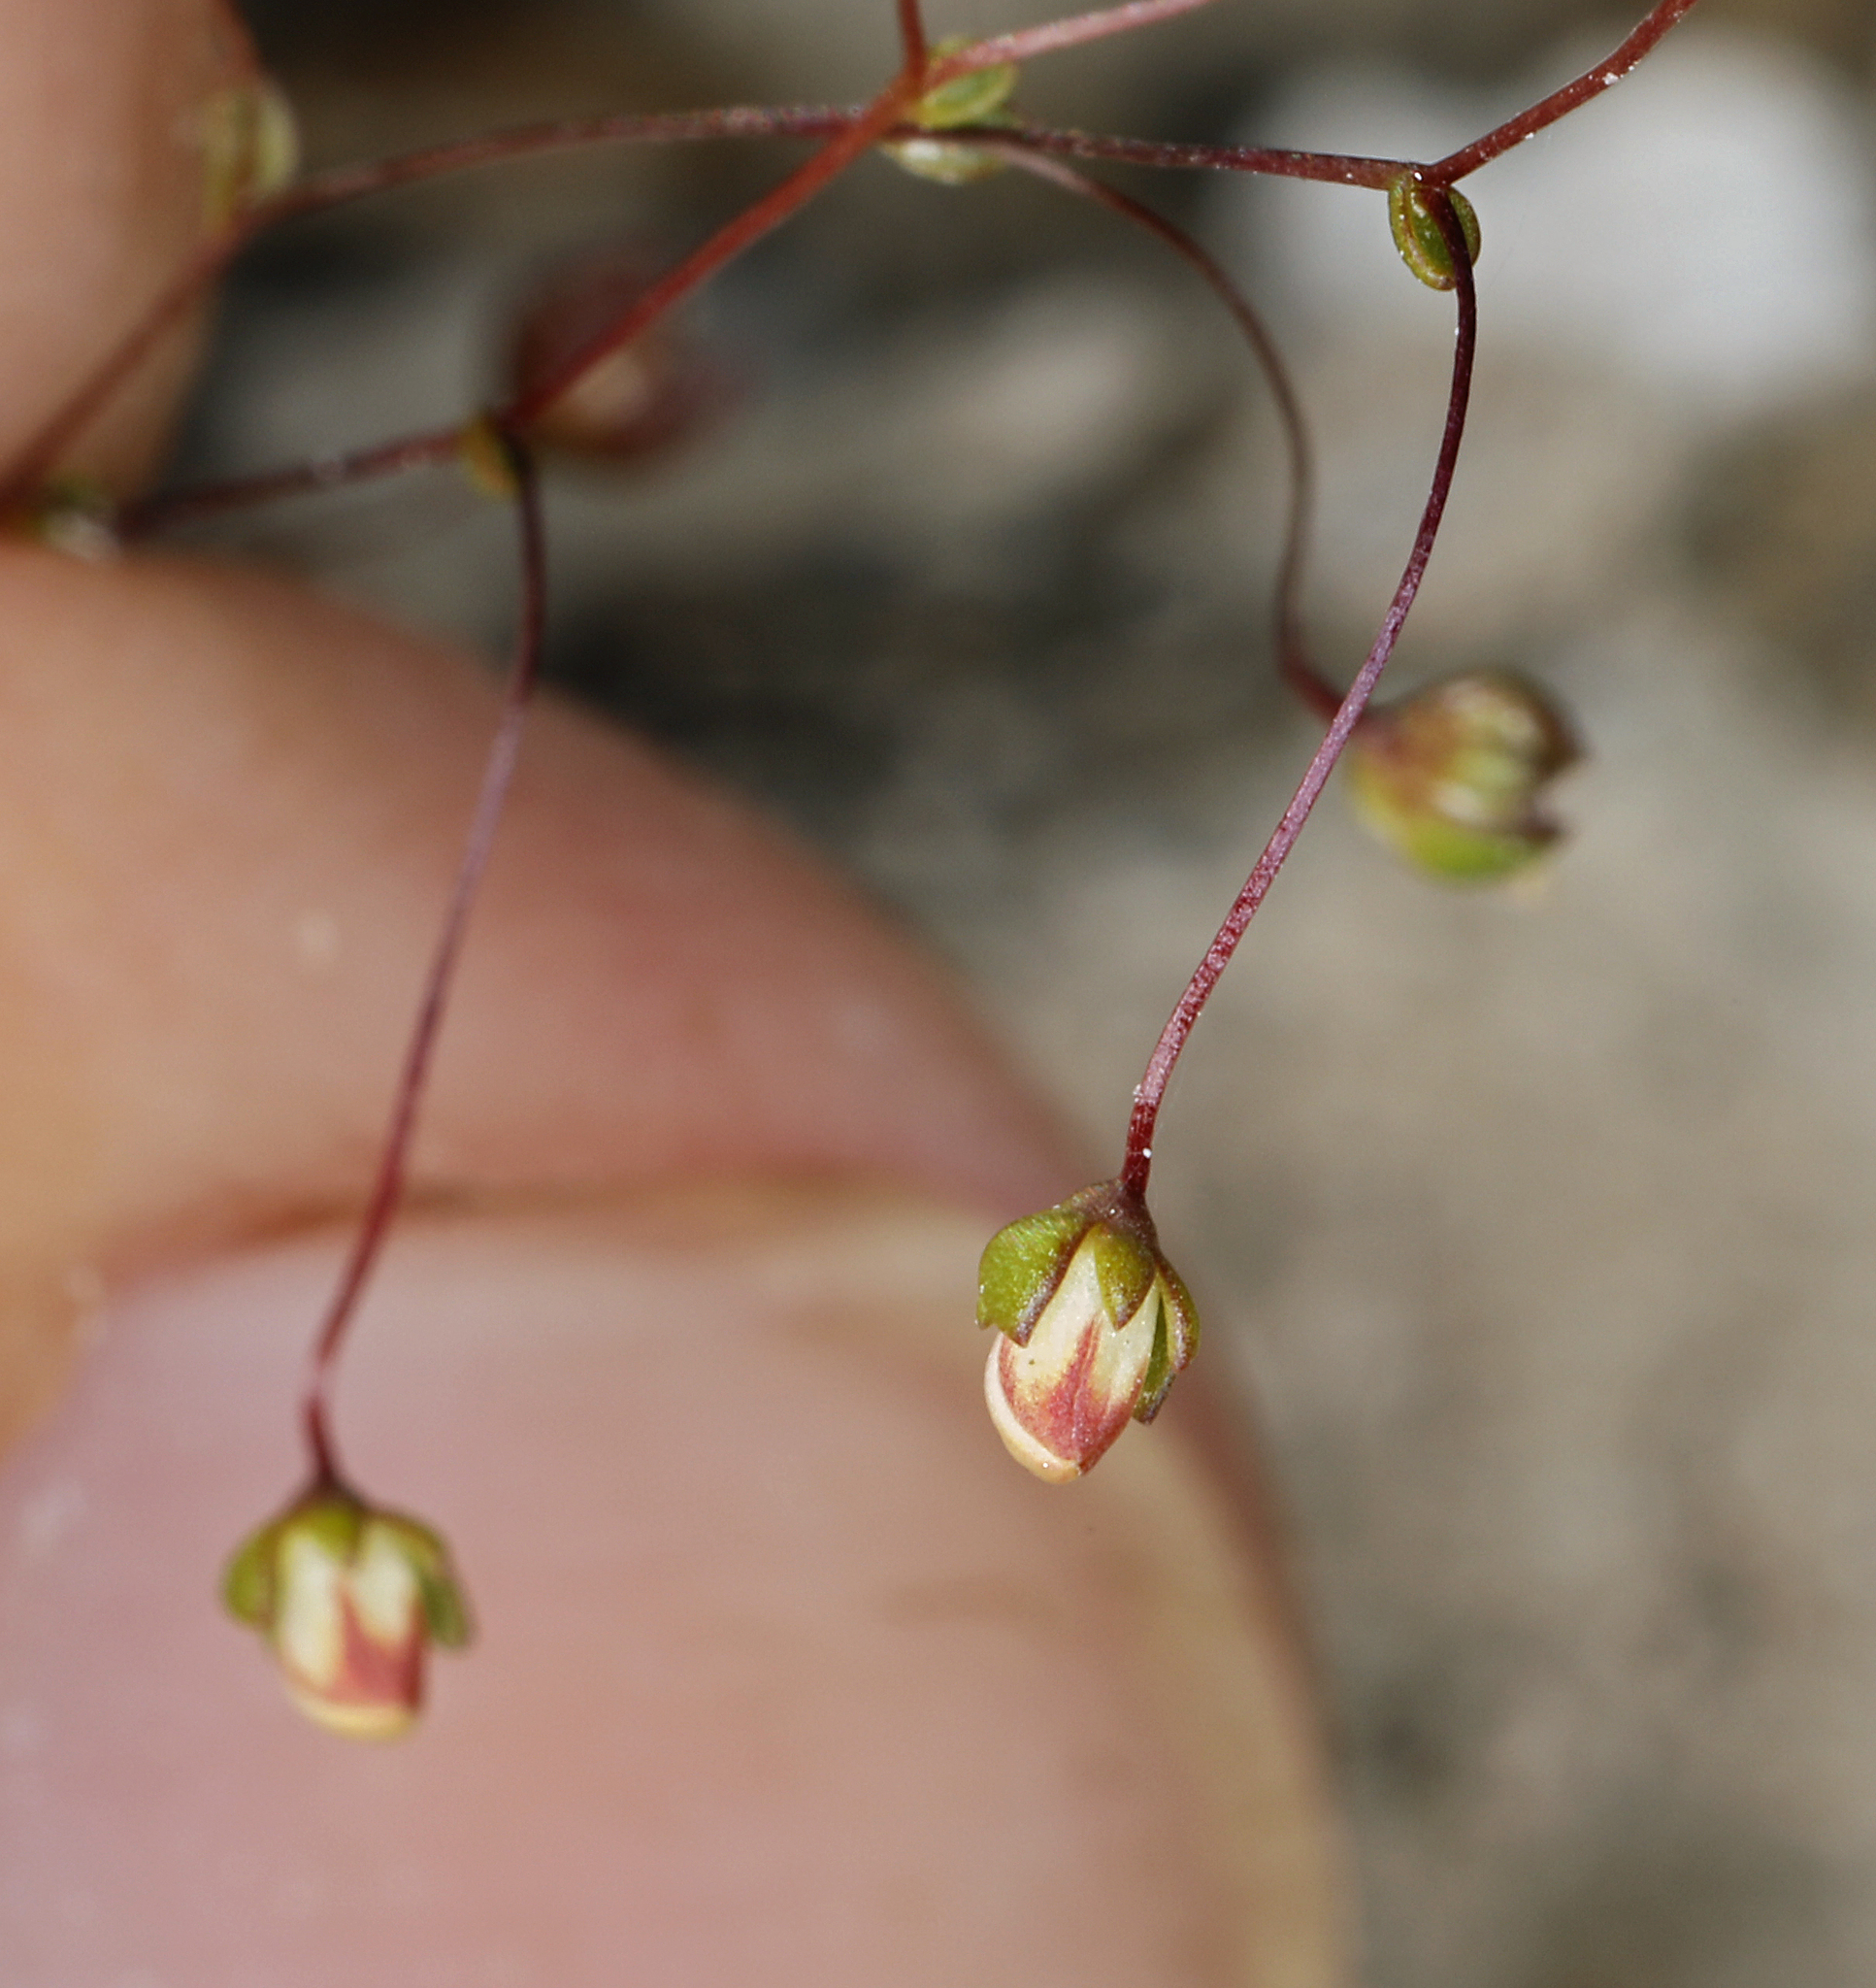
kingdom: Plantae
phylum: Tracheophyta
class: Magnoliopsida
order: Asterales
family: Campanulaceae
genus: Nemacladus
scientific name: Nemacladus morefieldii
